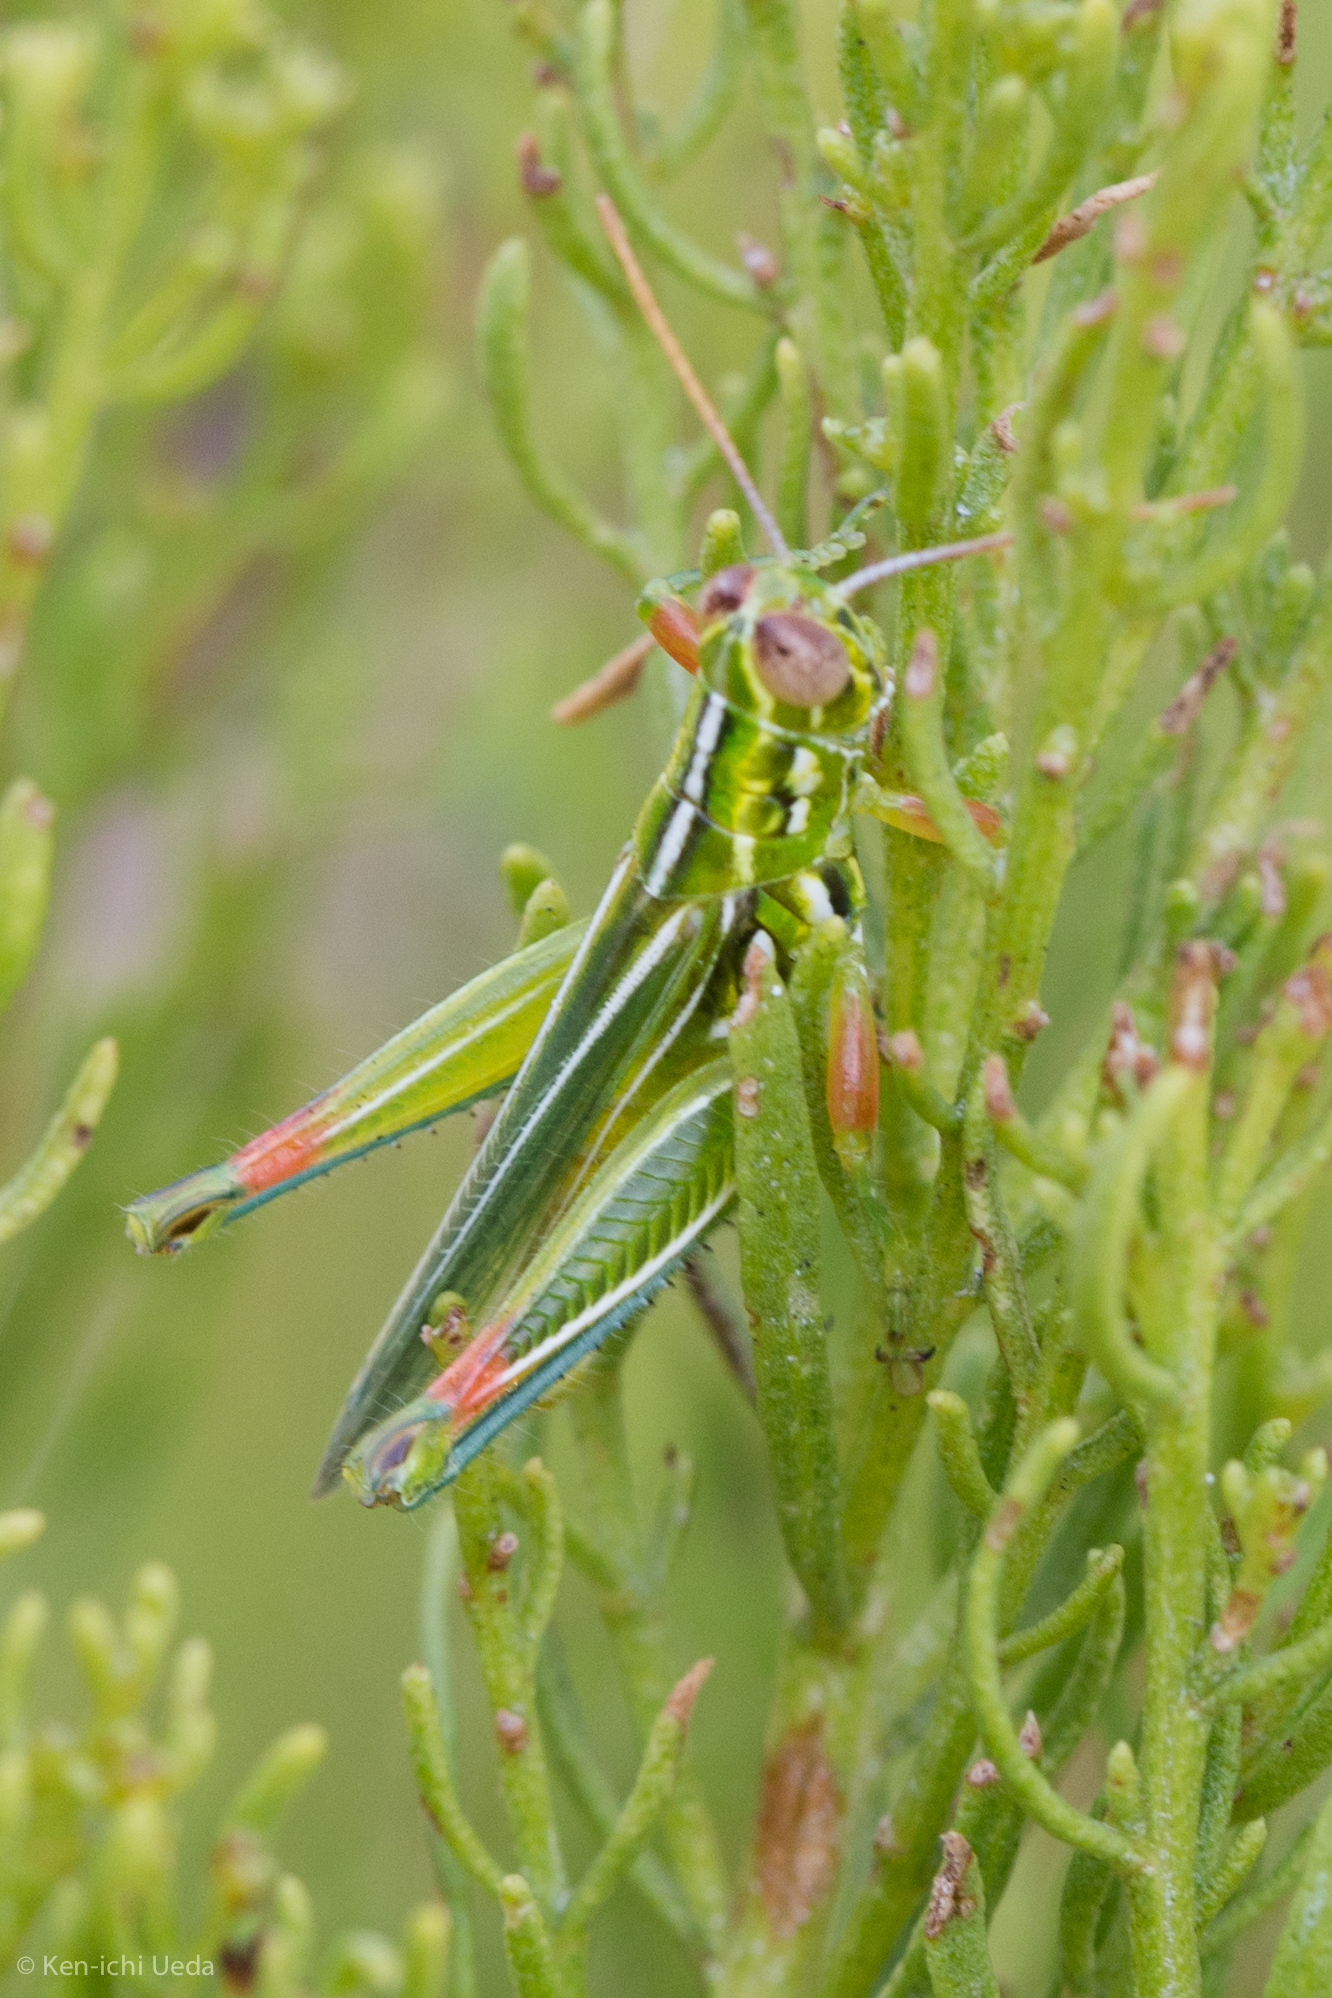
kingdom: Animalia
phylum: Arthropoda
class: Insecta
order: Orthoptera
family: Acrididae
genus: Hesperotettix
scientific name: Hesperotettix viridis
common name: Meadow purple-striped grasshopper
